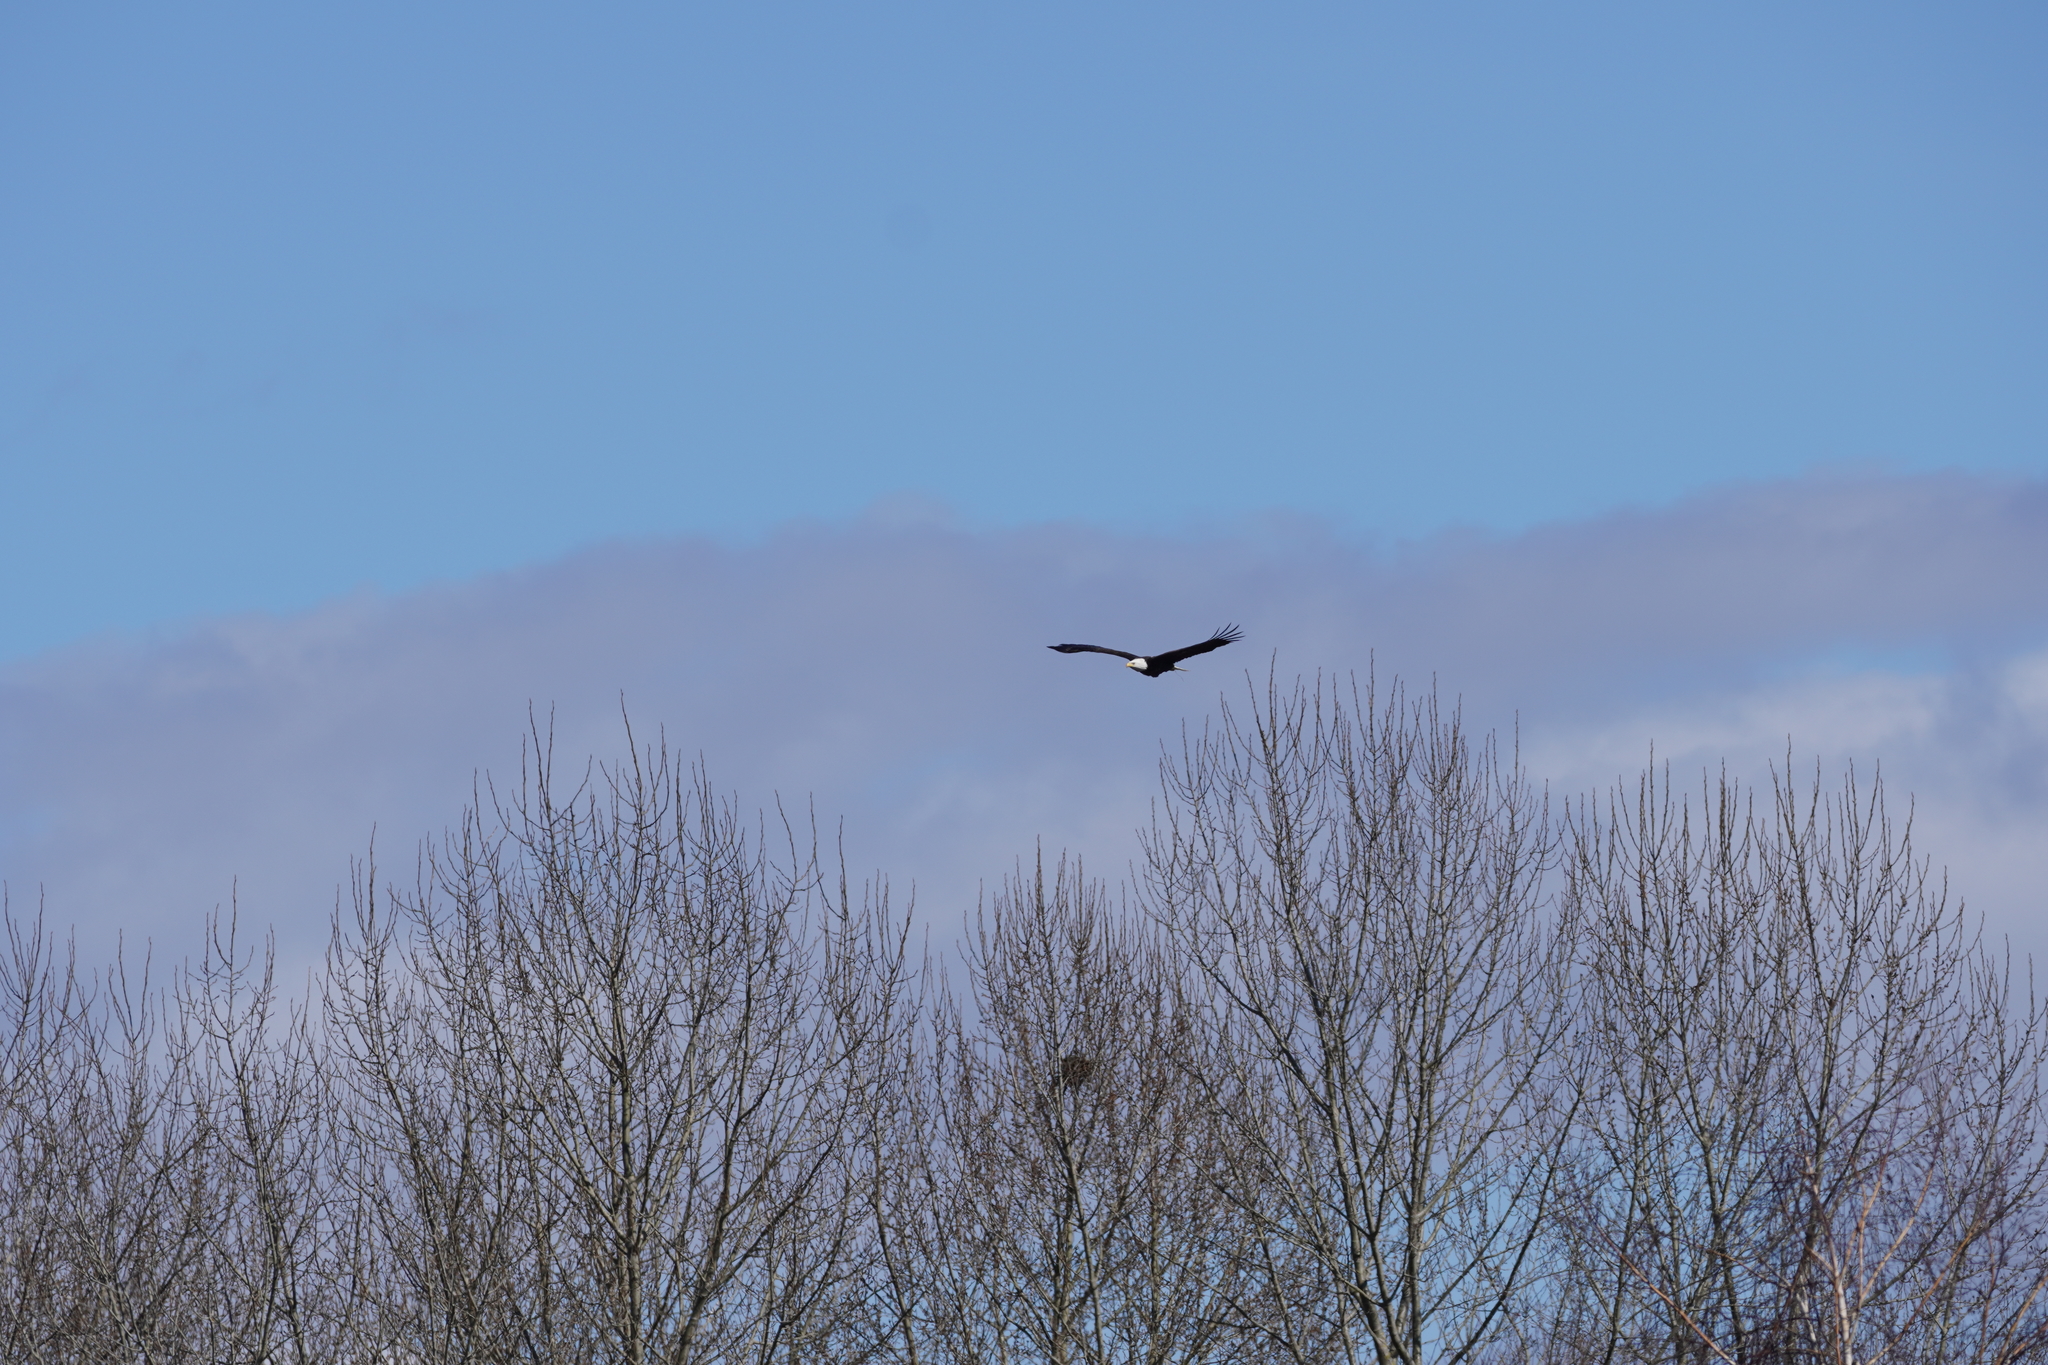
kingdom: Animalia
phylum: Chordata
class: Aves
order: Accipitriformes
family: Accipitridae
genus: Haliaeetus
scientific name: Haliaeetus leucocephalus
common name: Bald eagle
